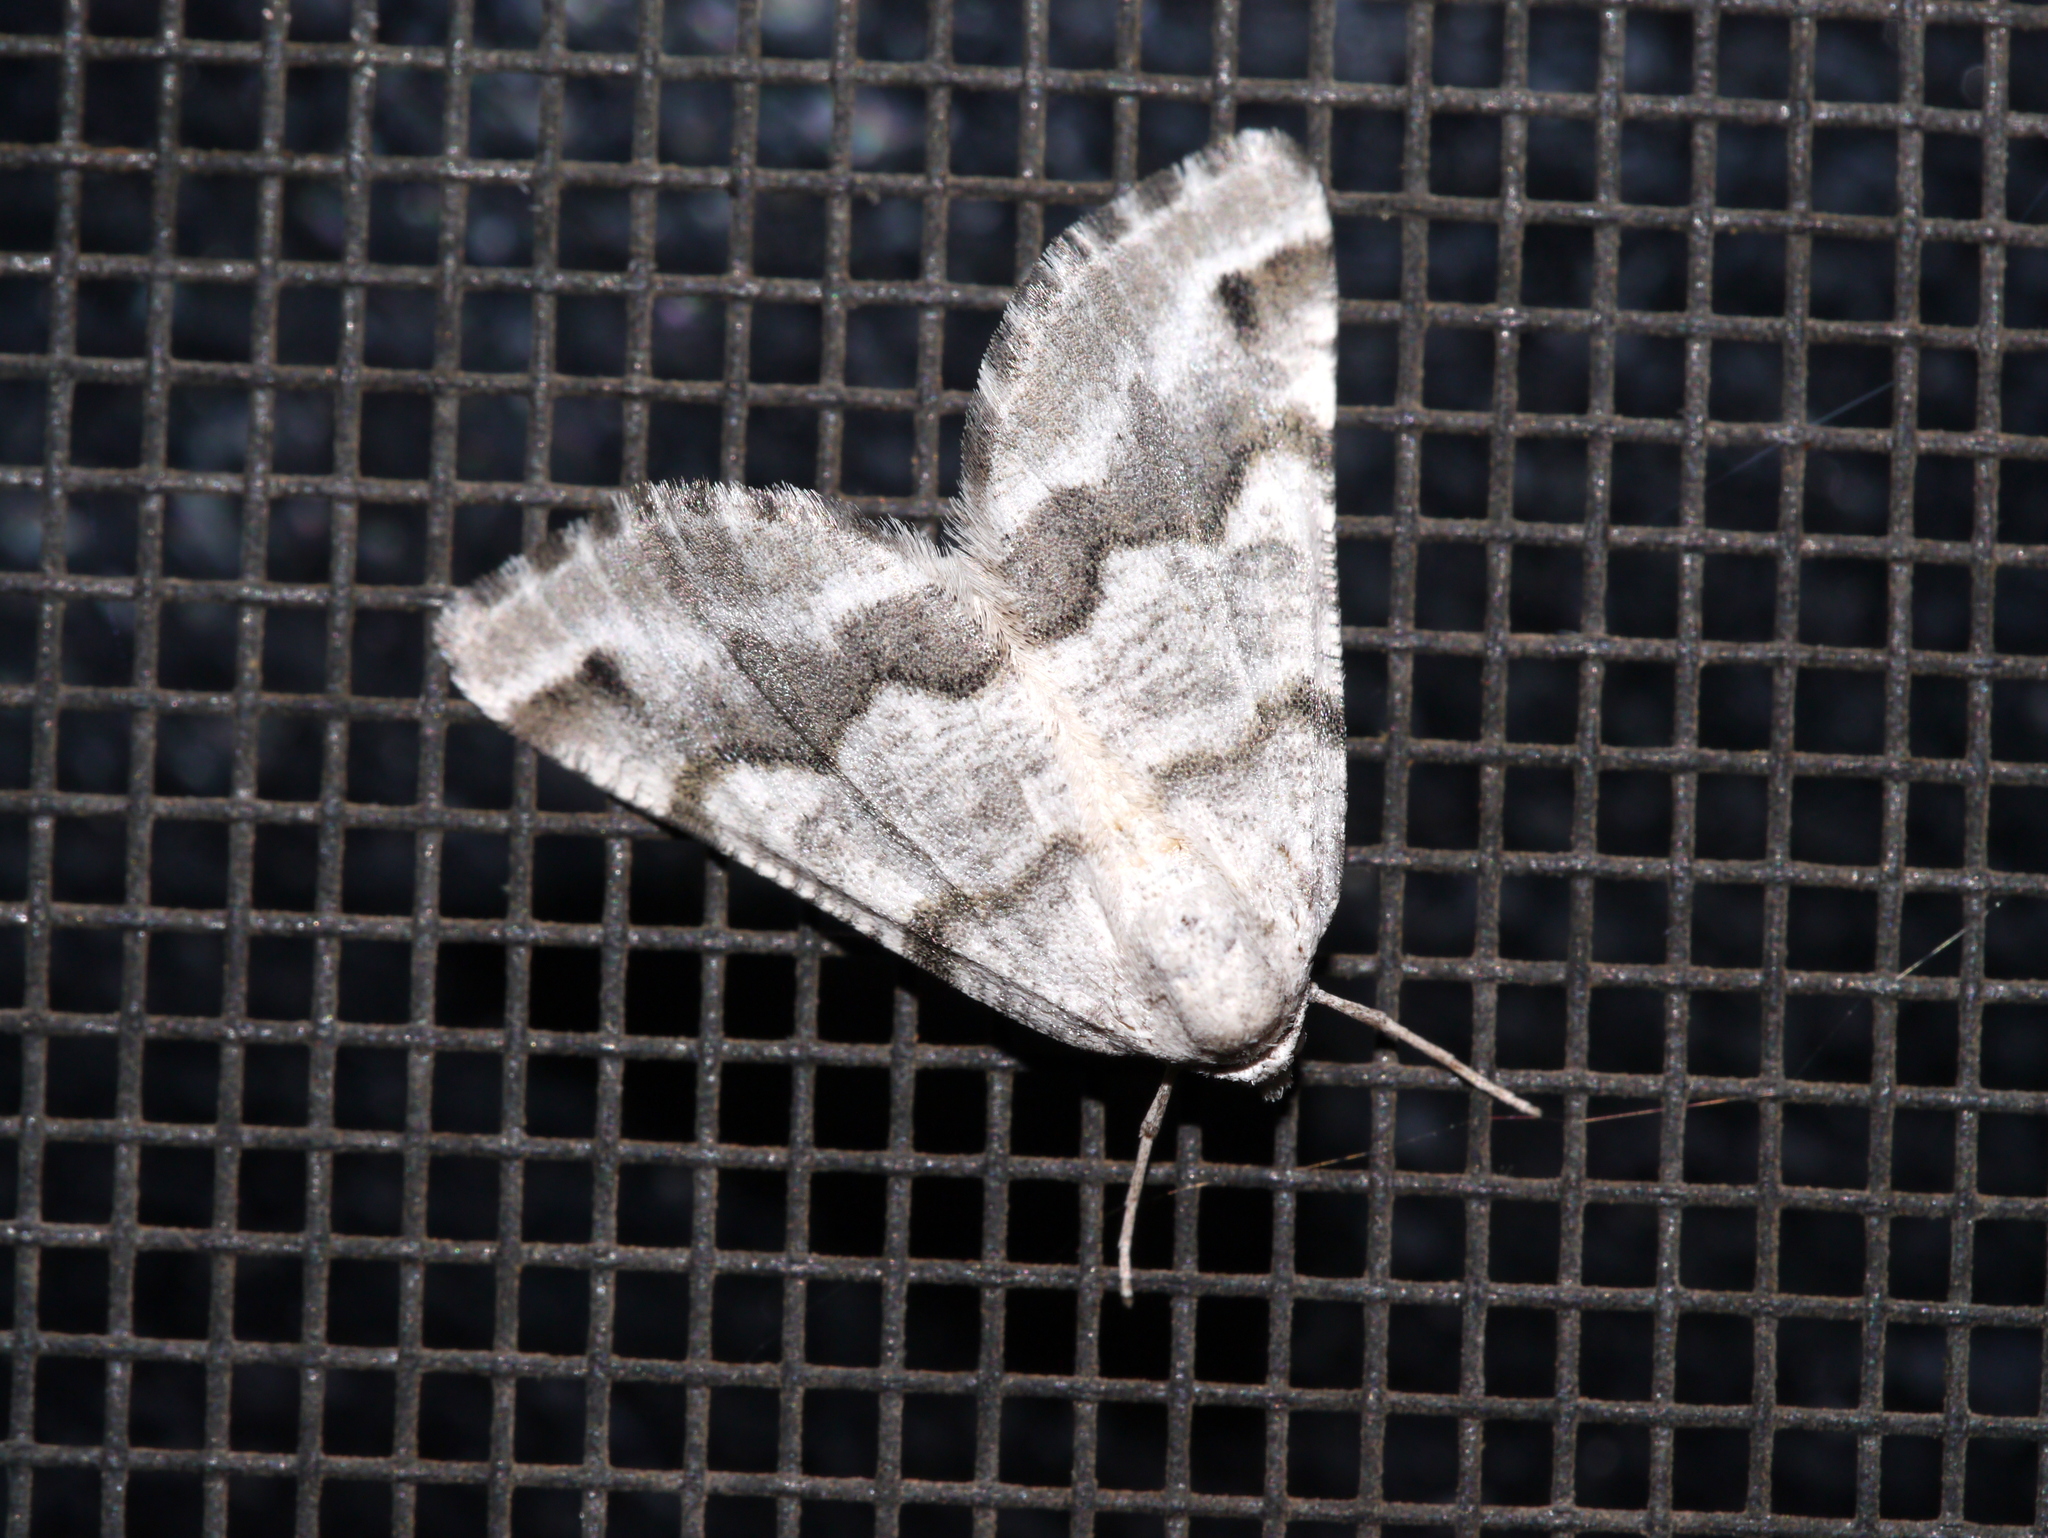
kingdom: Animalia
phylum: Arthropoda
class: Insecta
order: Lepidoptera
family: Geometridae
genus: Macaria
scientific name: Macaria pallipennata
